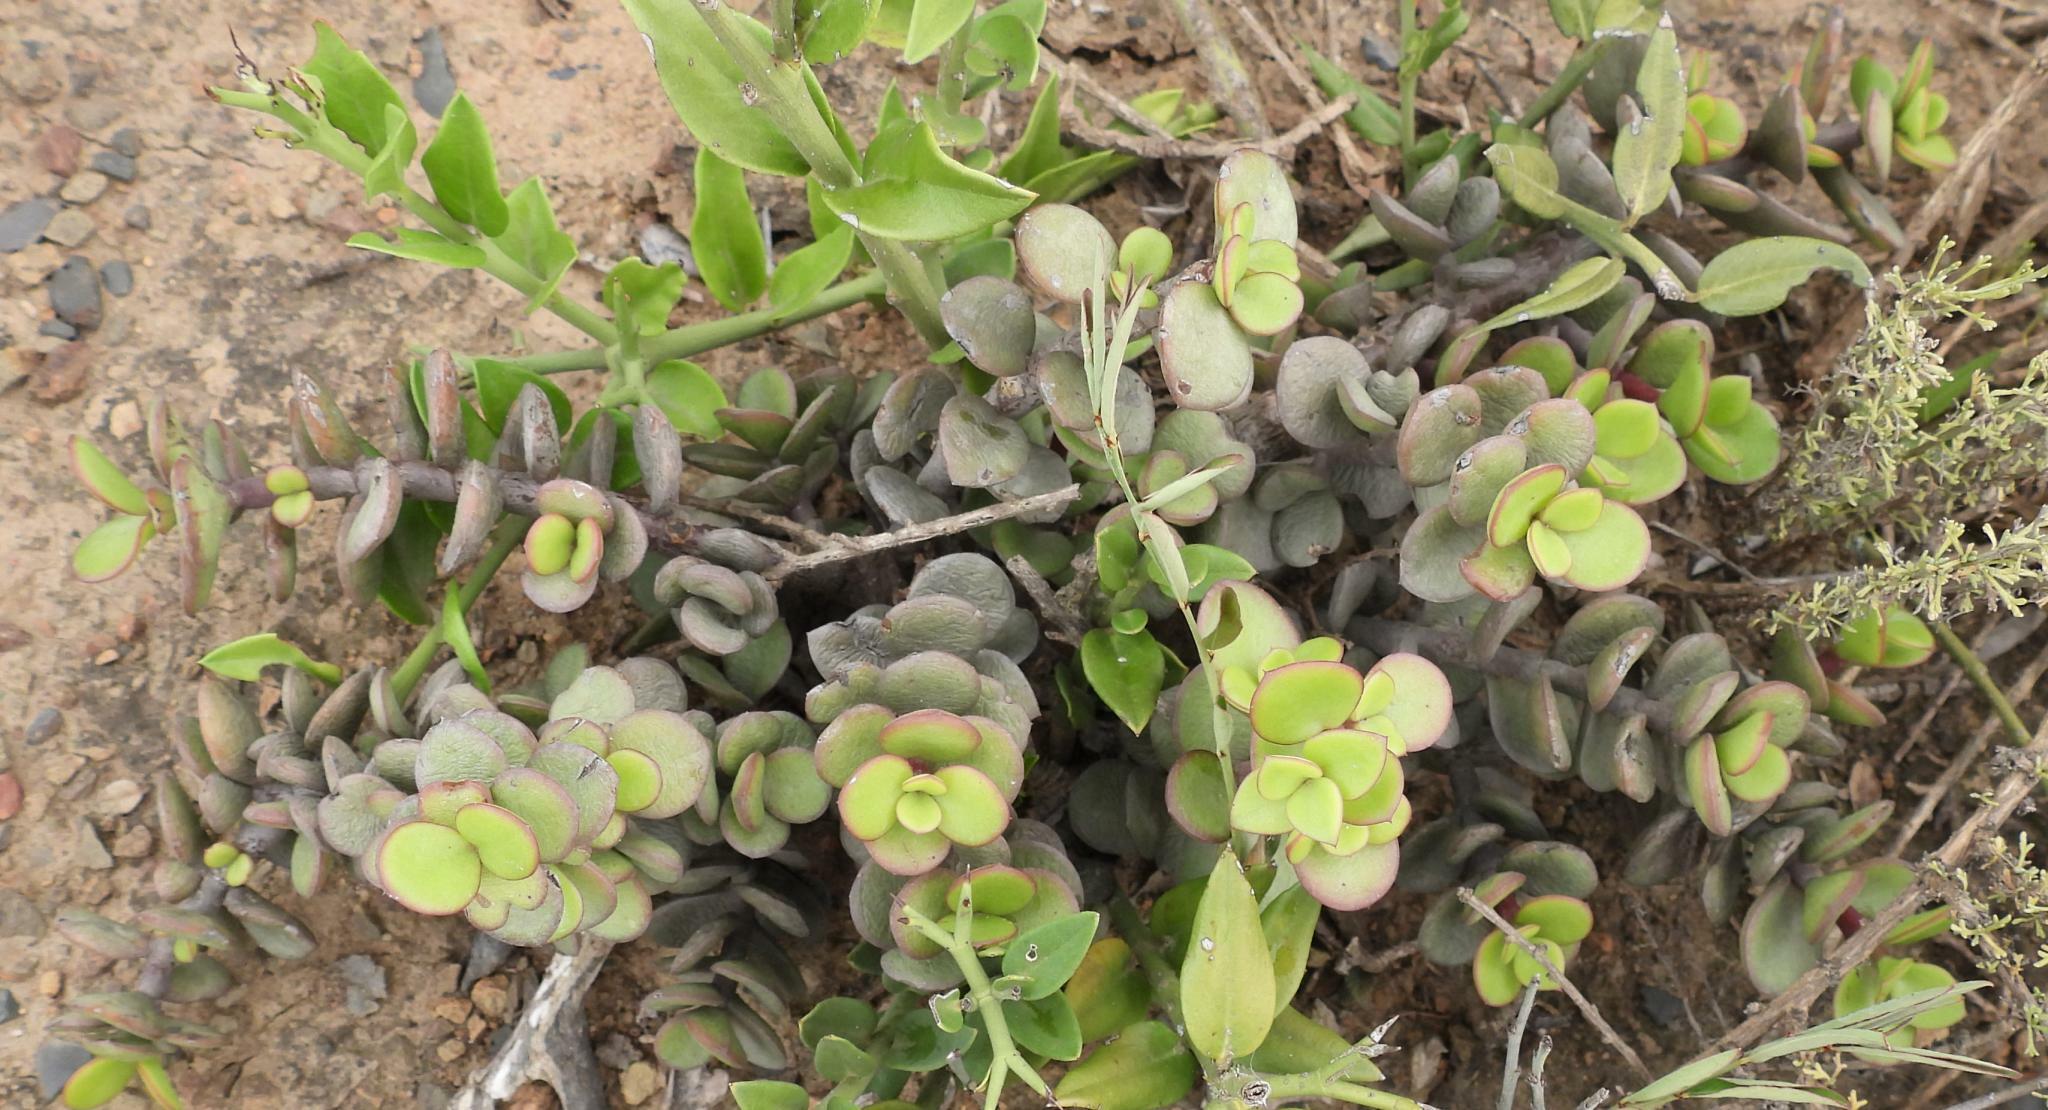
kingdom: Plantae
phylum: Tracheophyta
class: Magnoliopsida
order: Caryophyllales
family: Didiereaceae
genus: Portulacaria
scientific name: Portulacaria afra
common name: Elephant-bush
